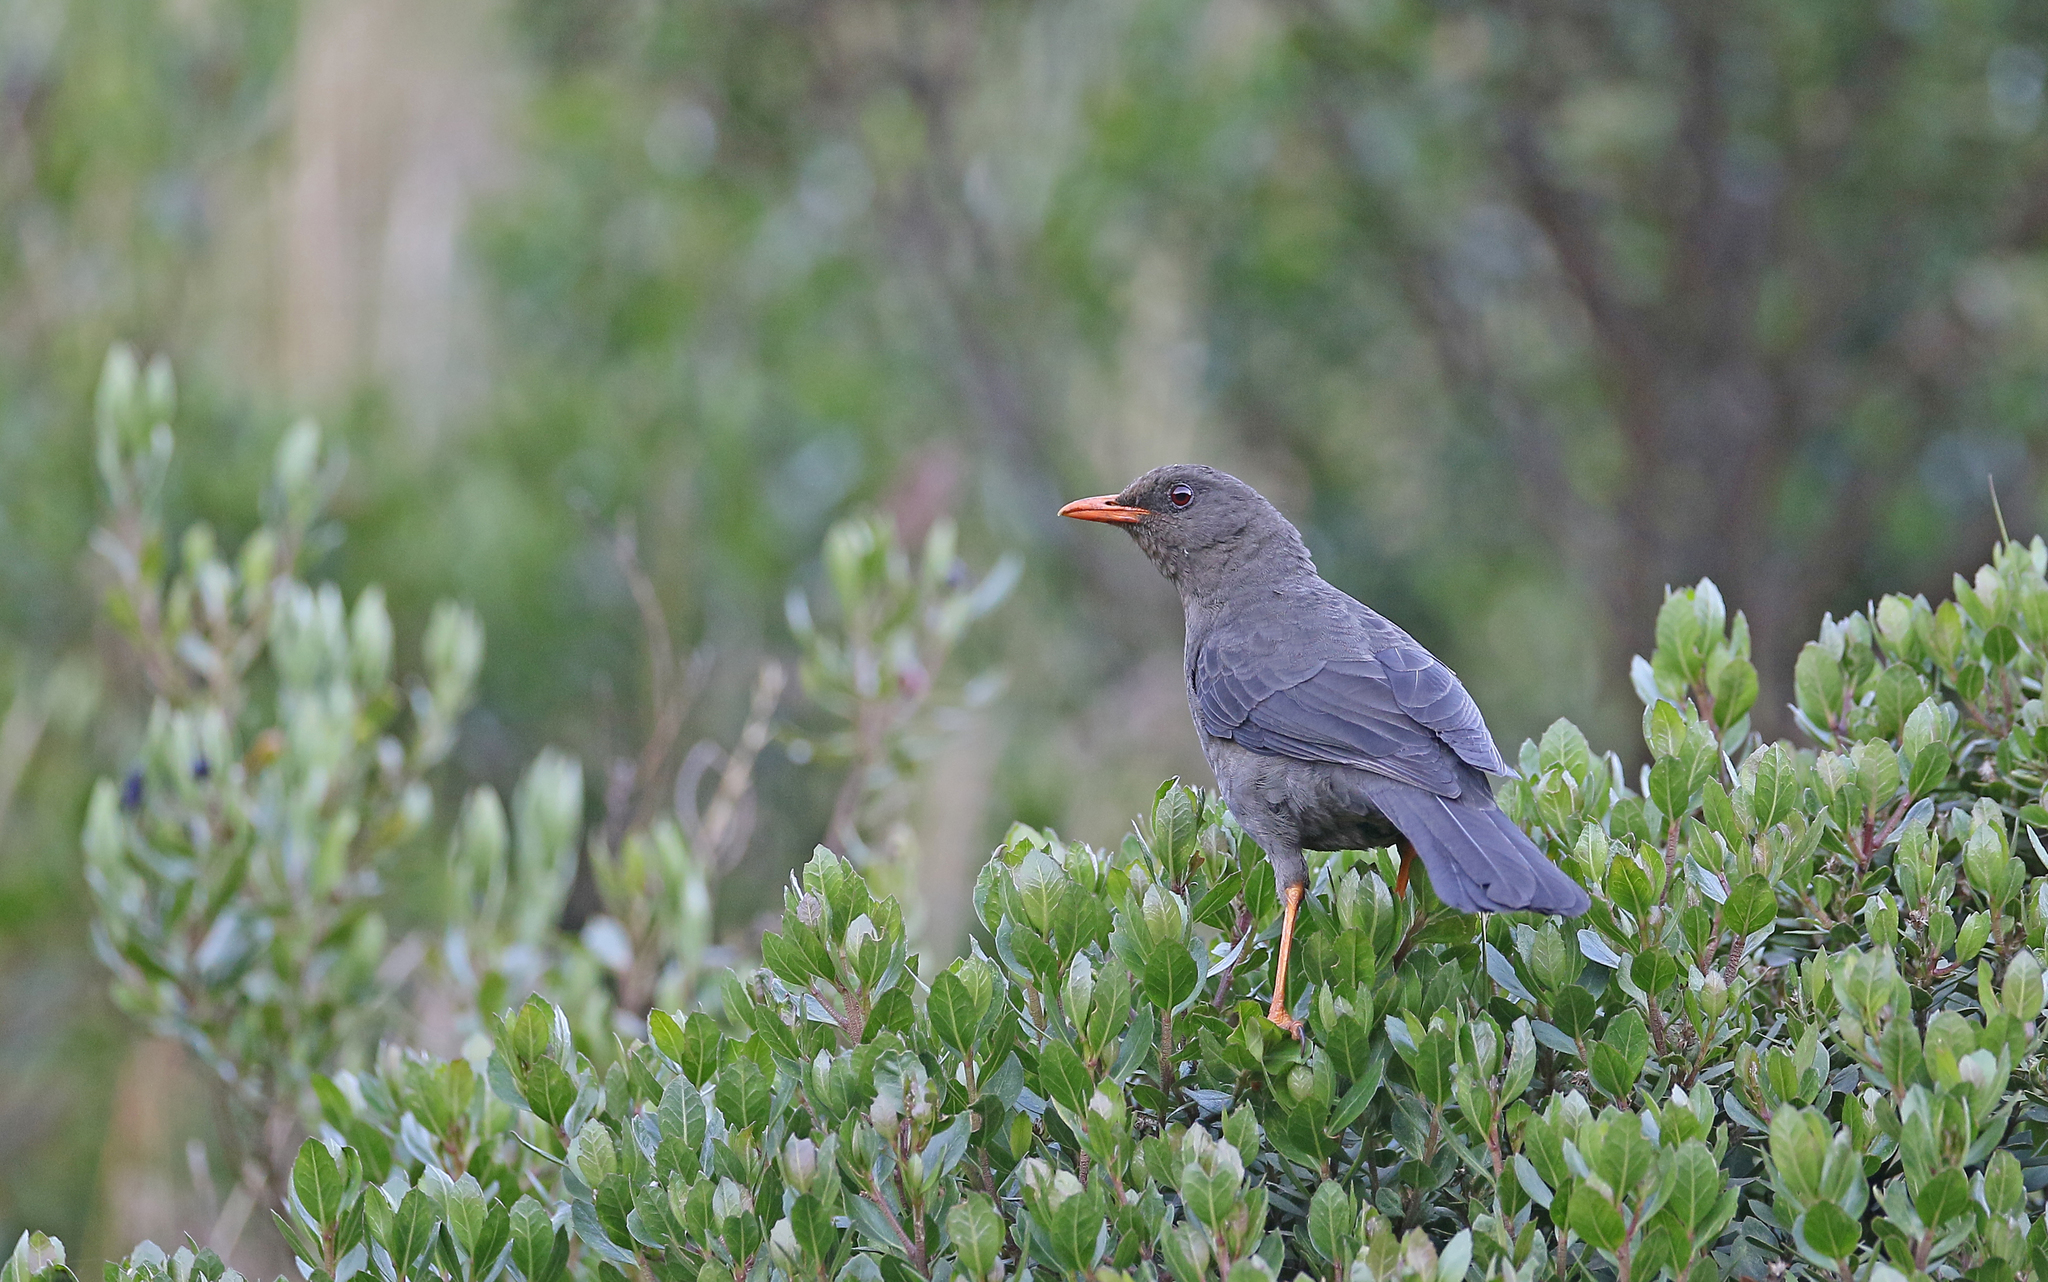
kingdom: Animalia
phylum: Chordata
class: Aves
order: Passeriformes
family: Turdidae
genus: Turdus
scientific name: Turdus fuscater
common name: Great thrush
